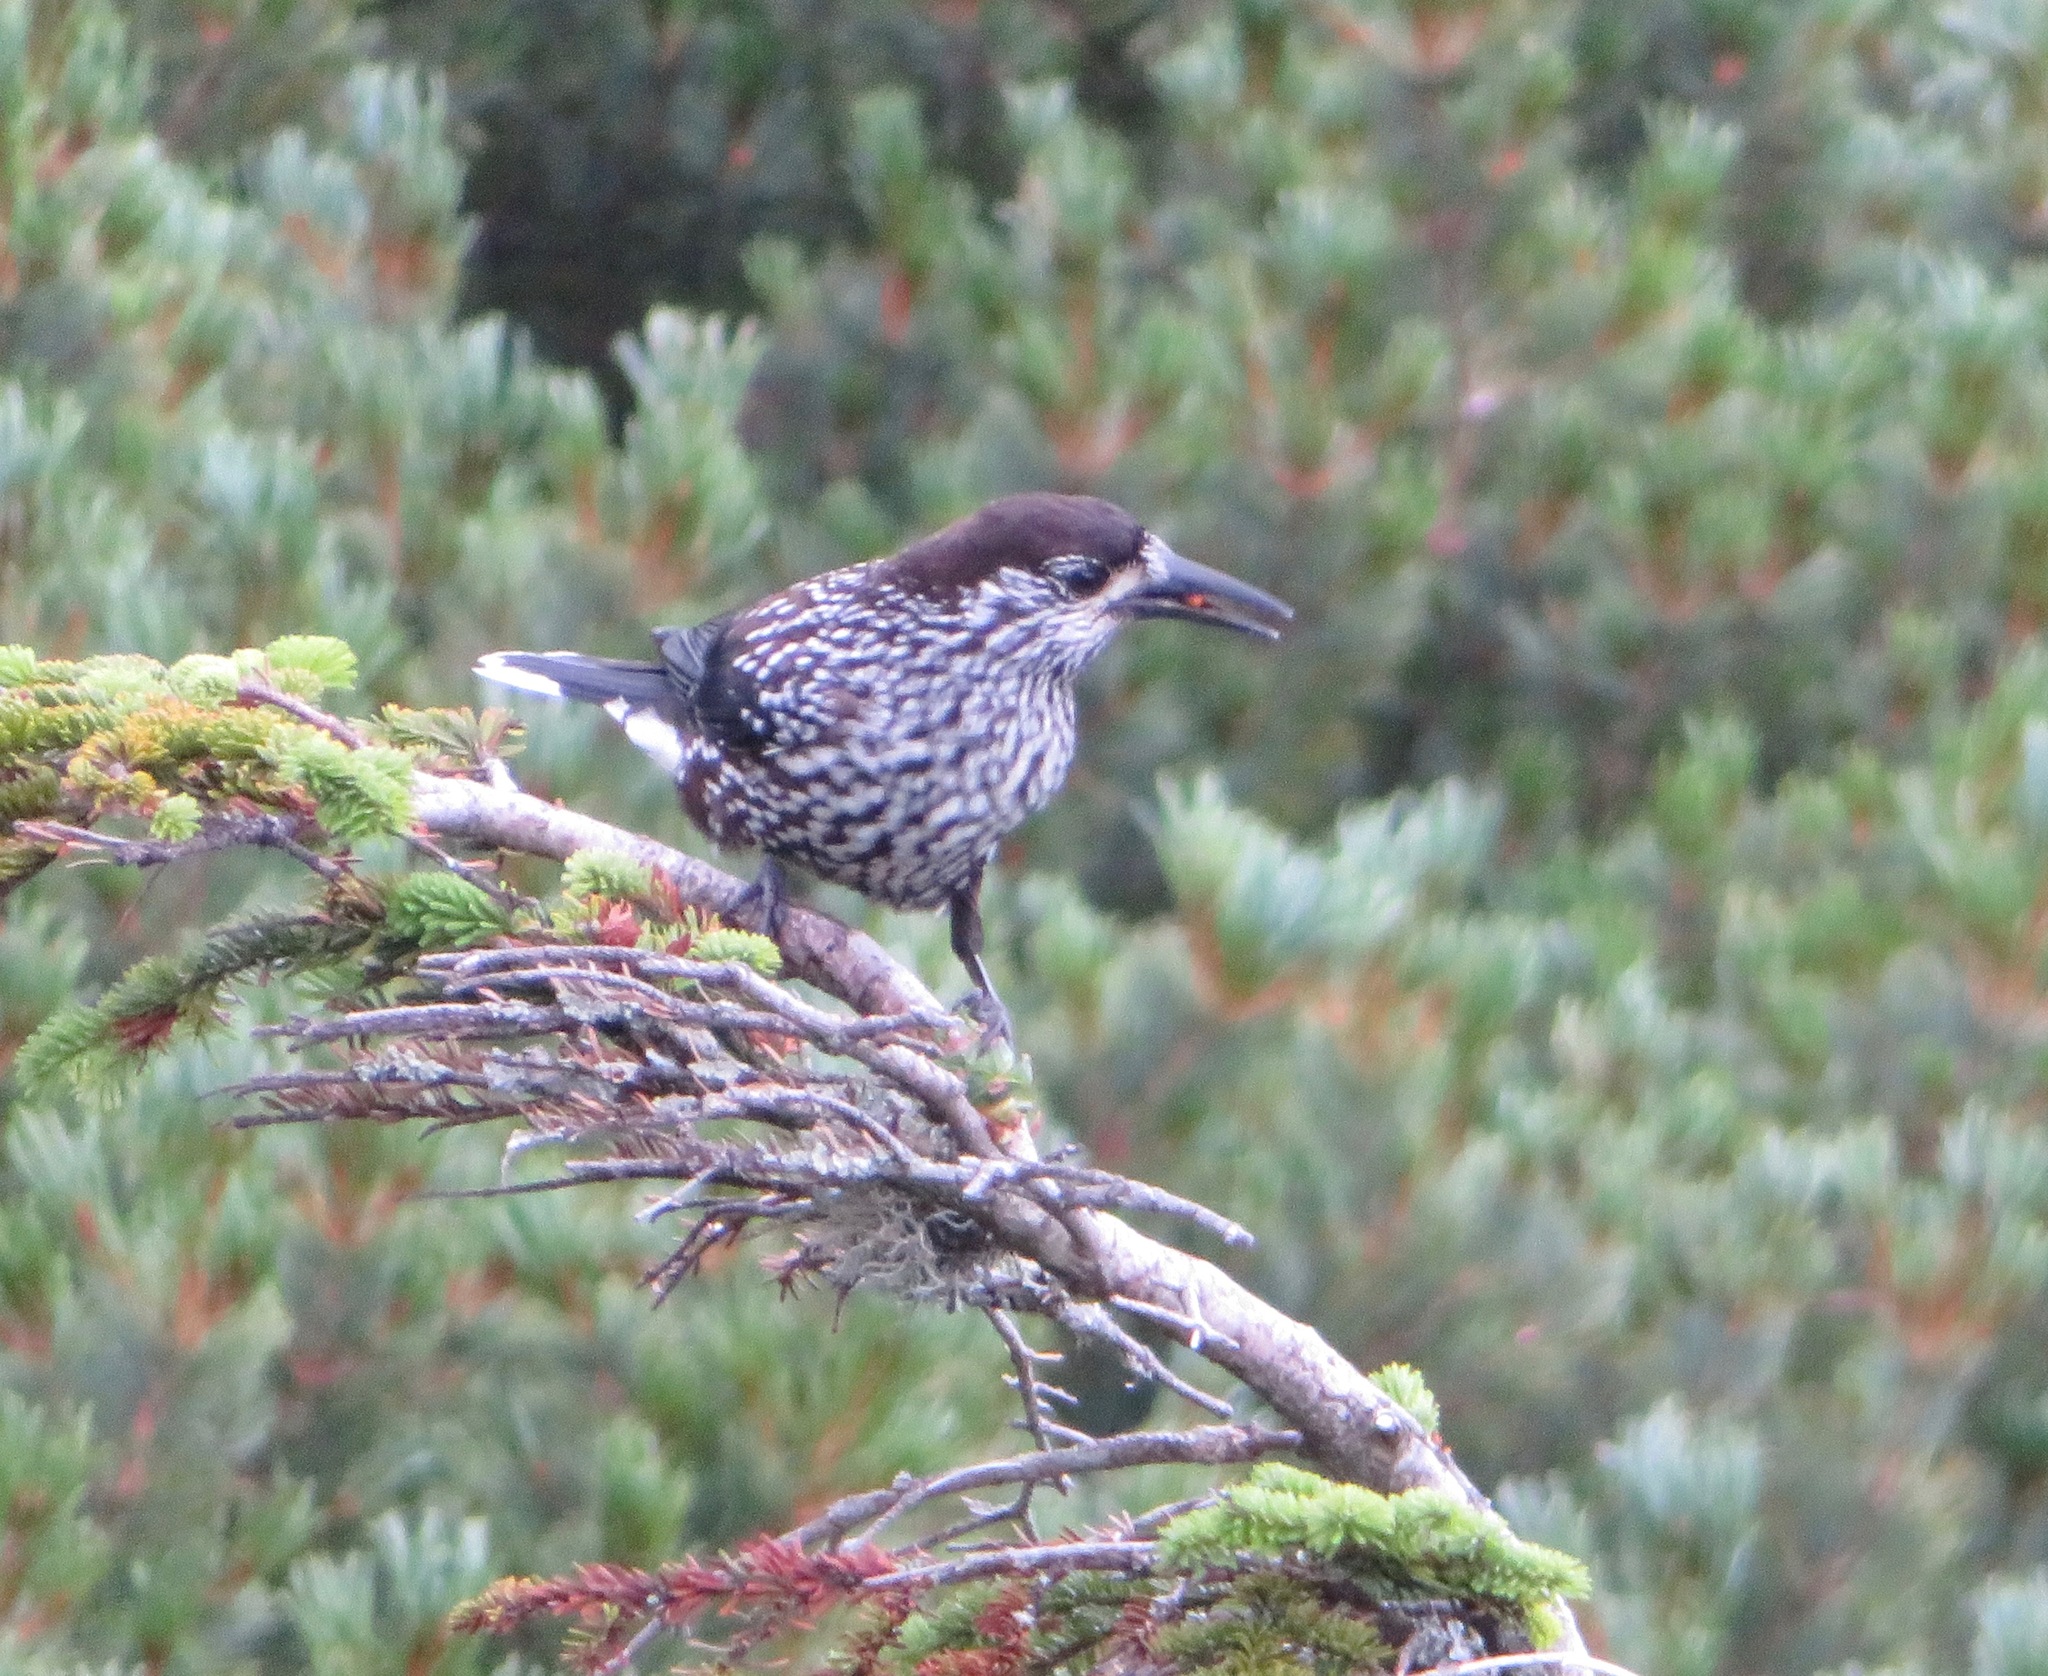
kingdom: Animalia
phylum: Chordata
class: Aves
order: Passeriformes
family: Corvidae
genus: Nucifraga
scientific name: Nucifraga caryocatactes
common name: Spotted nutcracker
